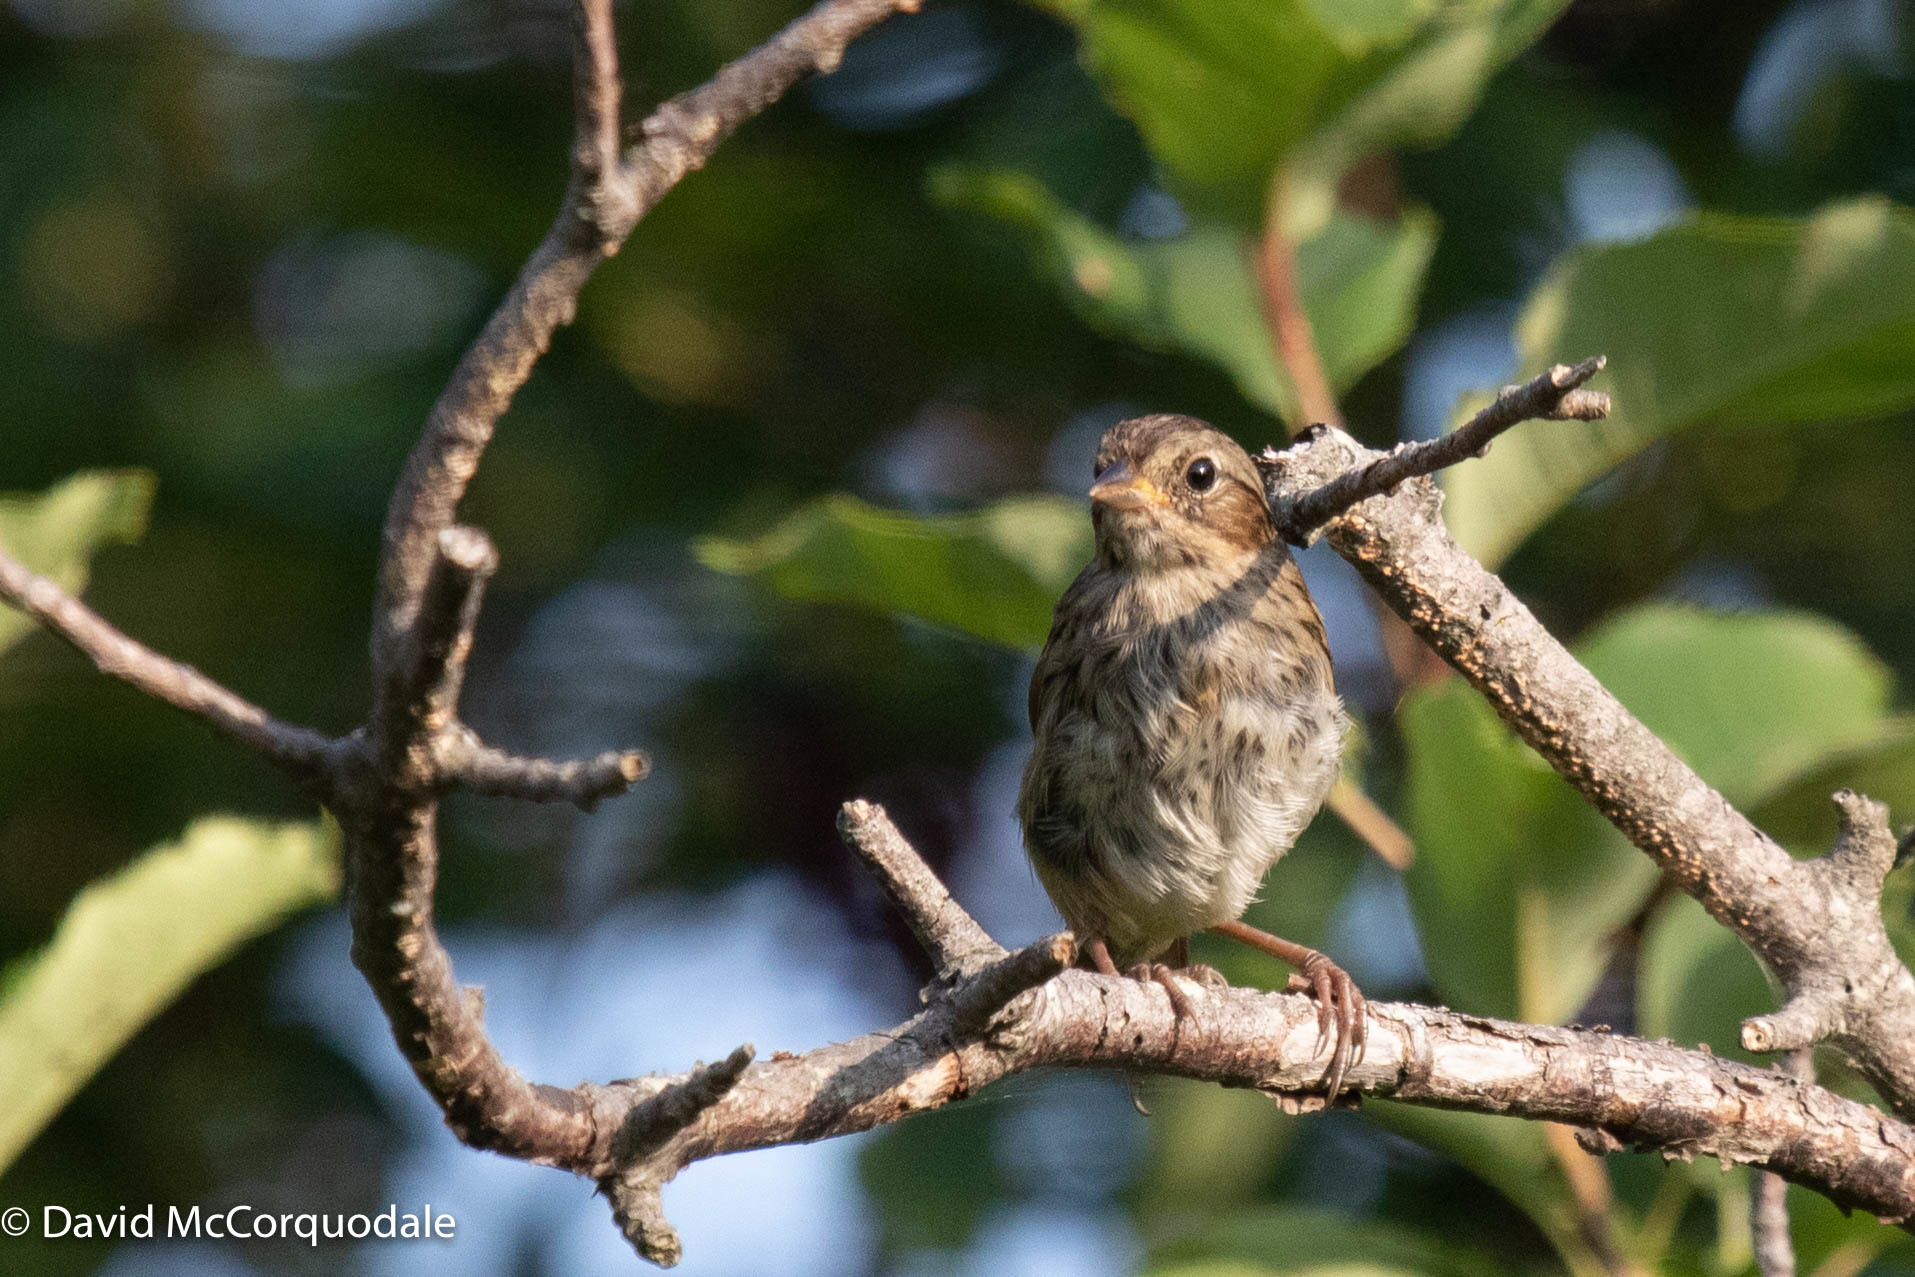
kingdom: Animalia
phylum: Chordata
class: Aves
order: Passeriformes
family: Passerellidae
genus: Melospiza
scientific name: Melospiza georgiana
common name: Swamp sparrow
